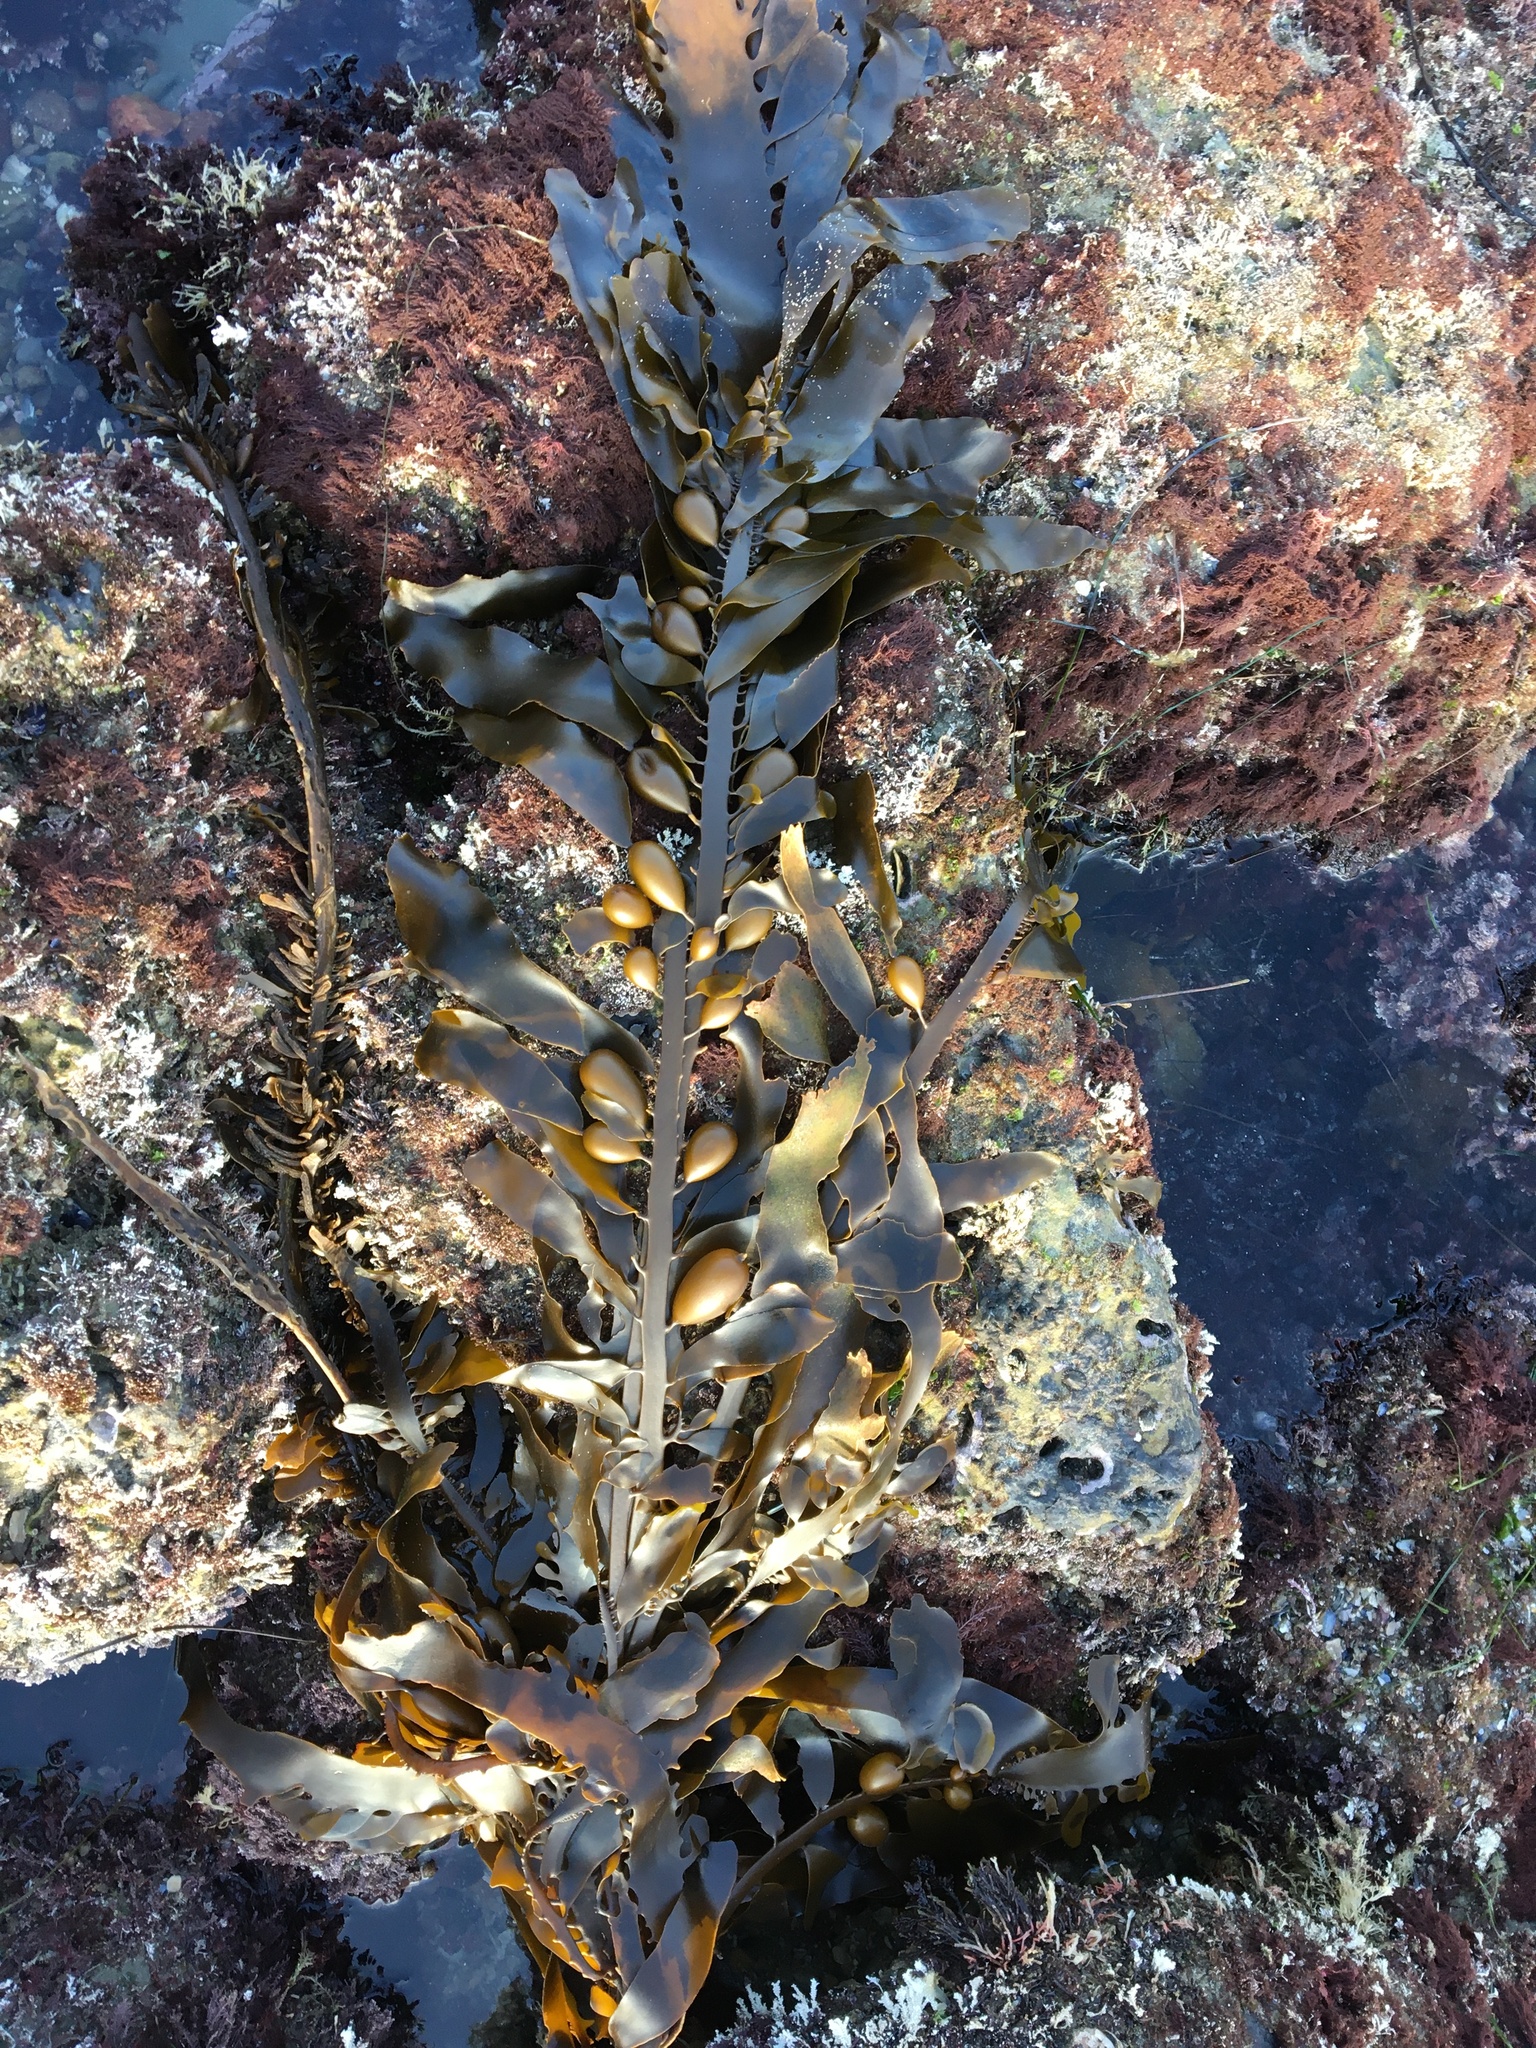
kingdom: Chromista
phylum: Ochrophyta
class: Phaeophyceae
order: Laminariales
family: Lessoniaceae
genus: Egregia
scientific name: Egregia menziesii
